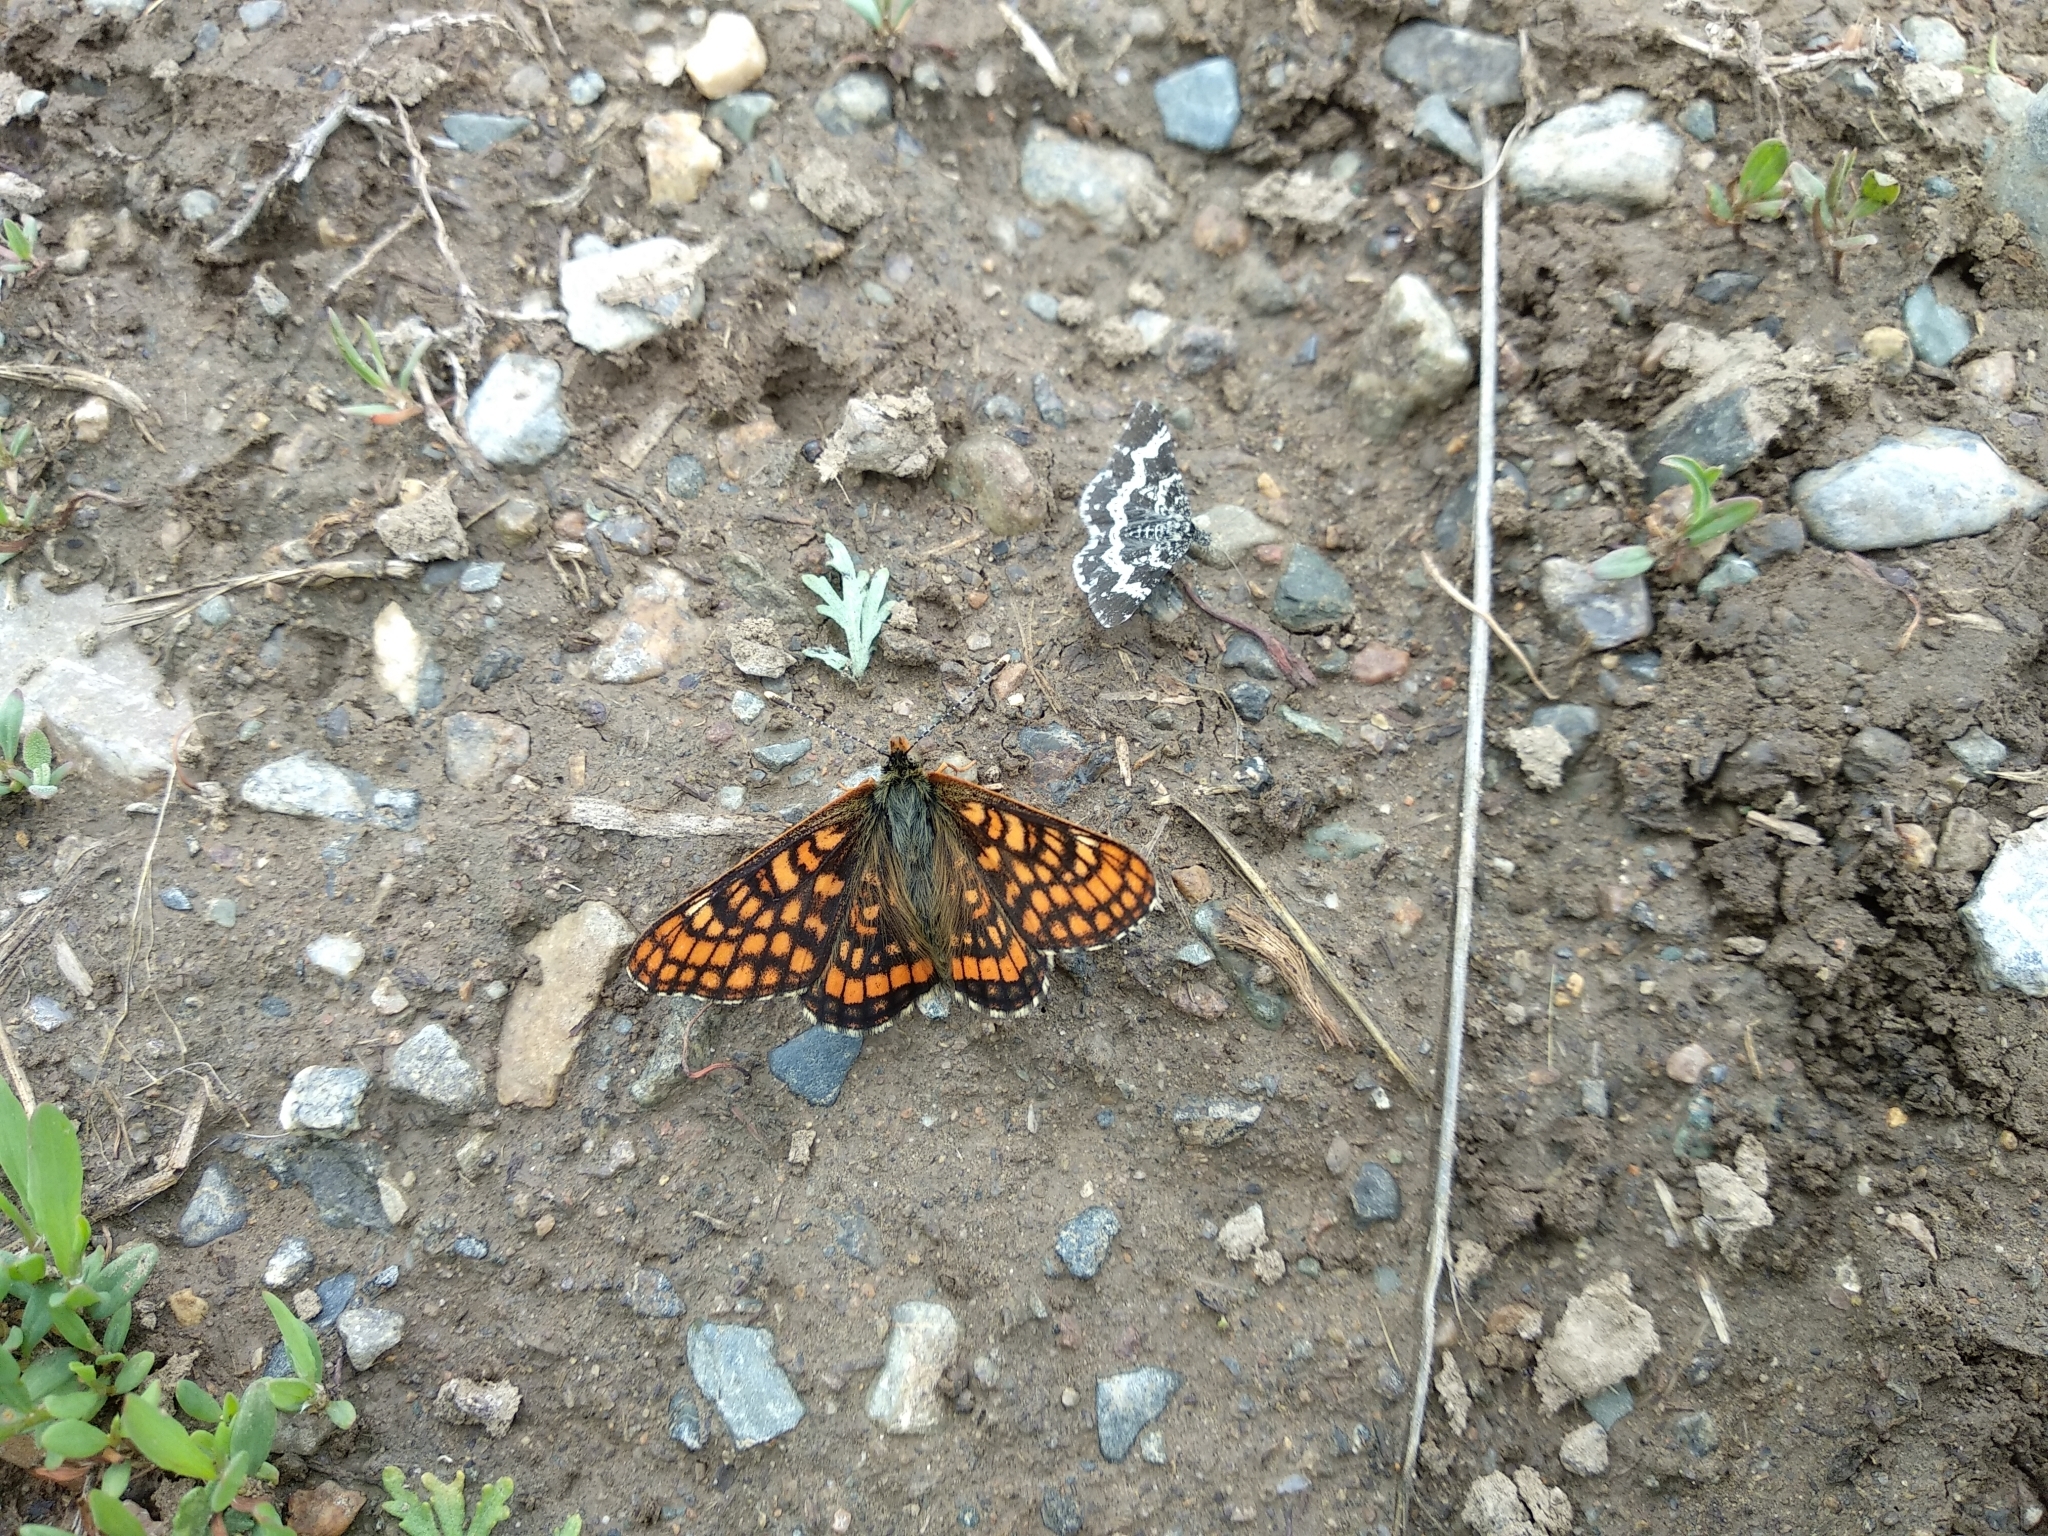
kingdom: Animalia
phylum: Arthropoda
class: Insecta
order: Lepidoptera
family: Nymphalidae
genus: Hypodryas
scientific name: Hypodryas intermedia
